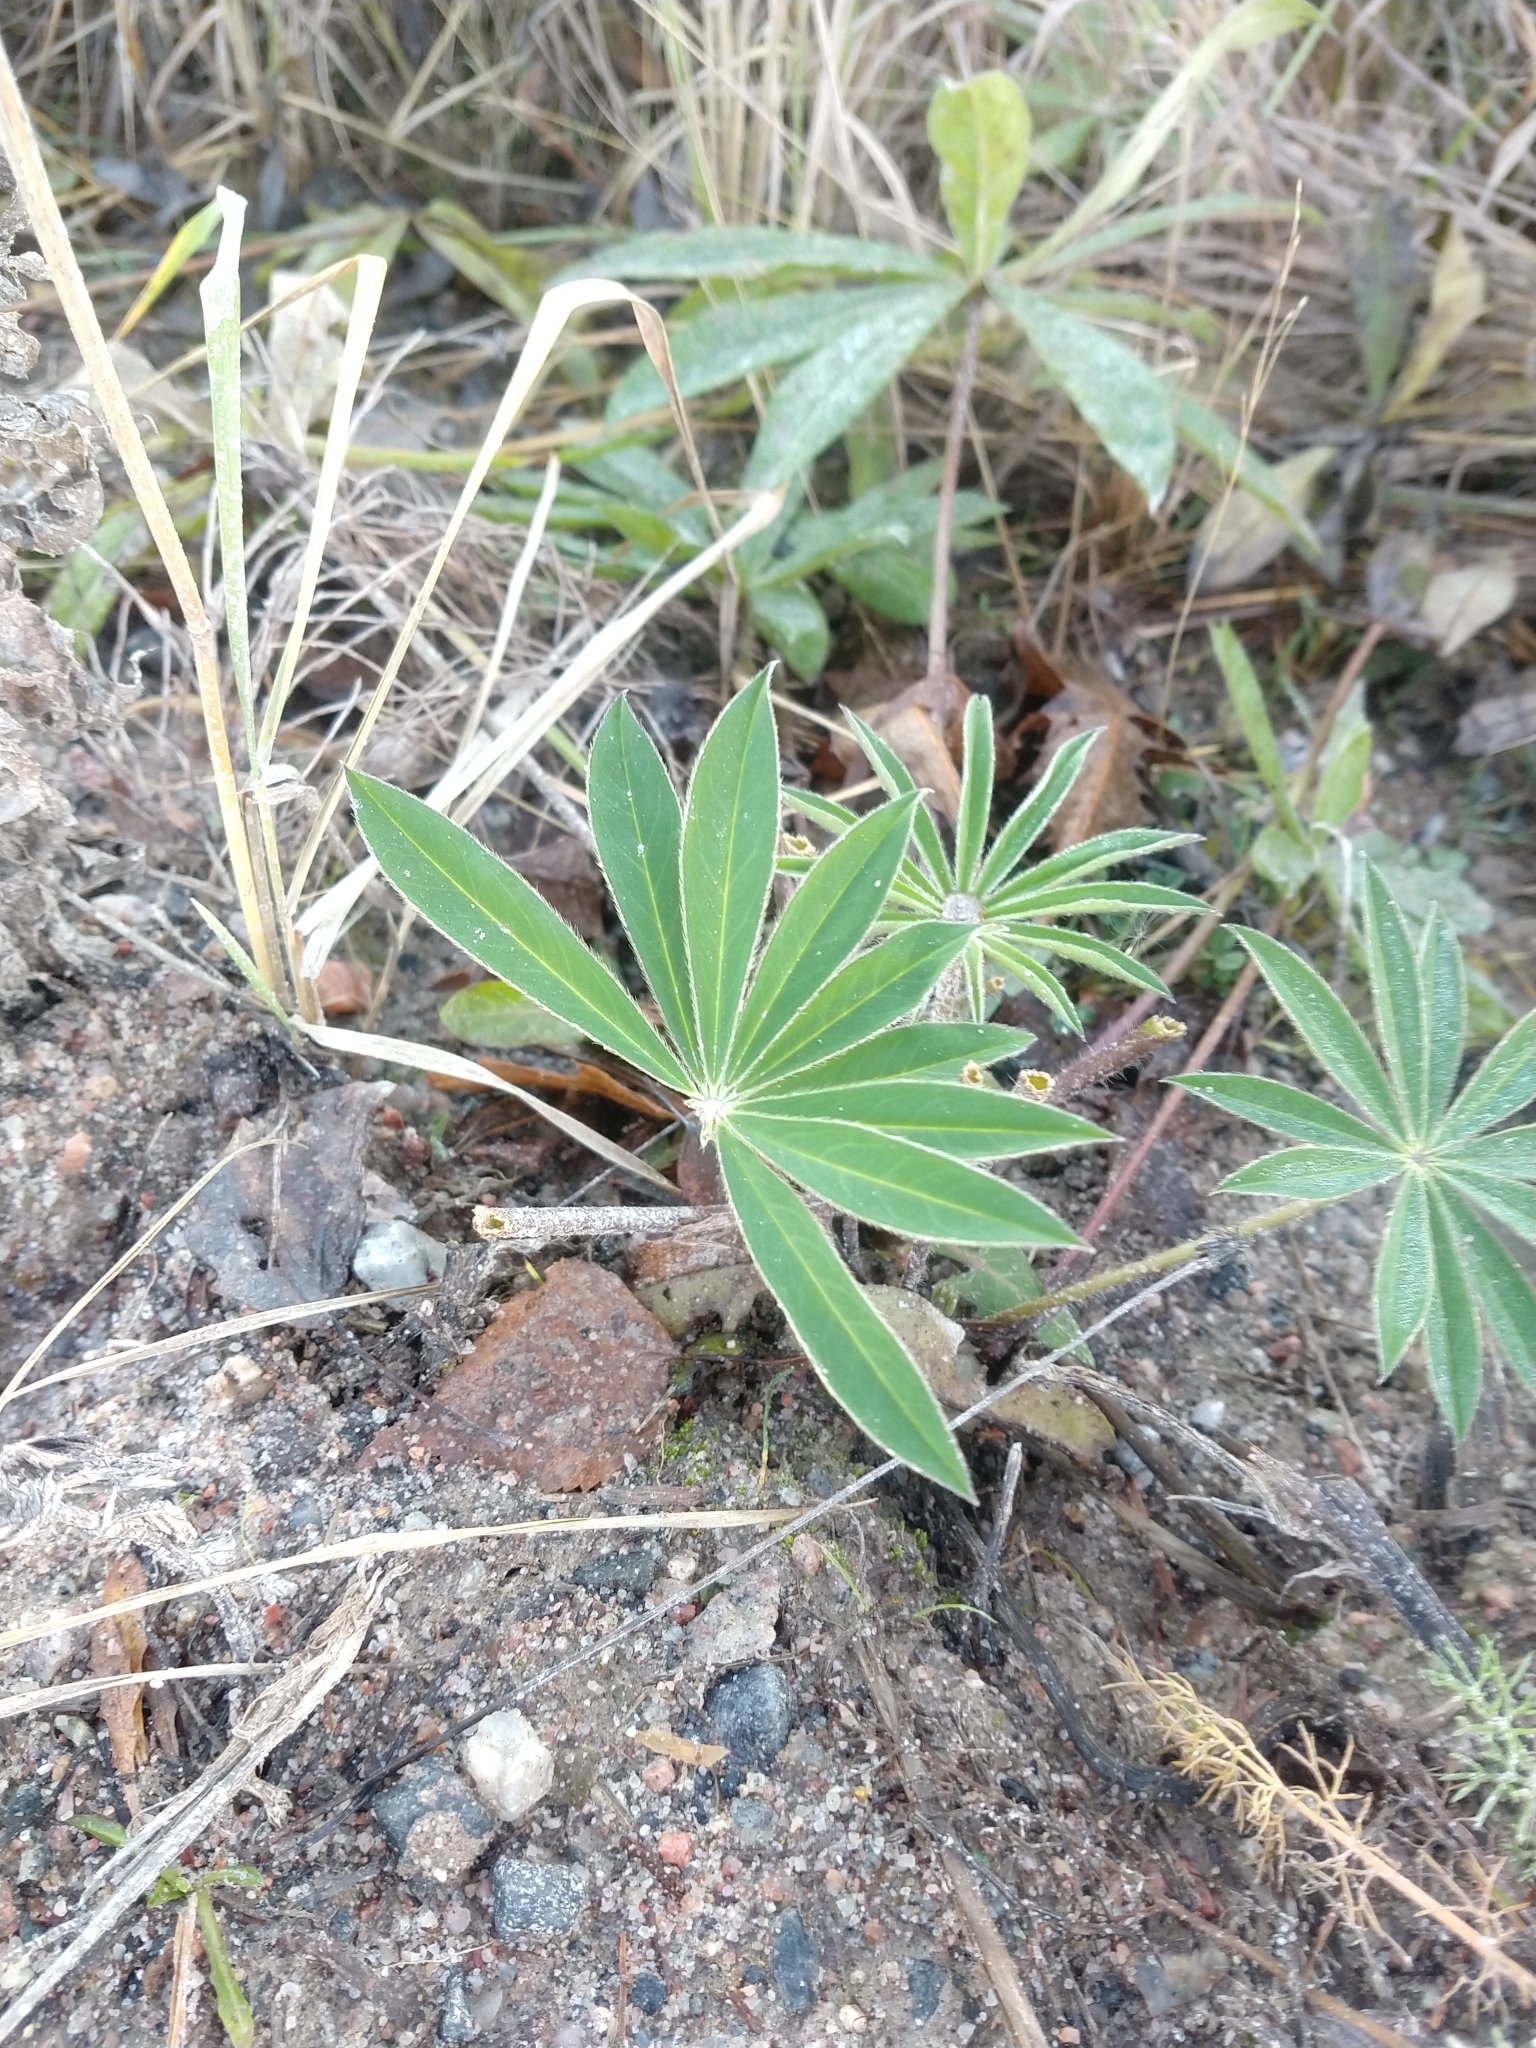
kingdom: Plantae
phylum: Tracheophyta
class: Magnoliopsida
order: Fabales
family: Fabaceae
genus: Lupinus
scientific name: Lupinus polyphyllus
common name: Garden lupin
